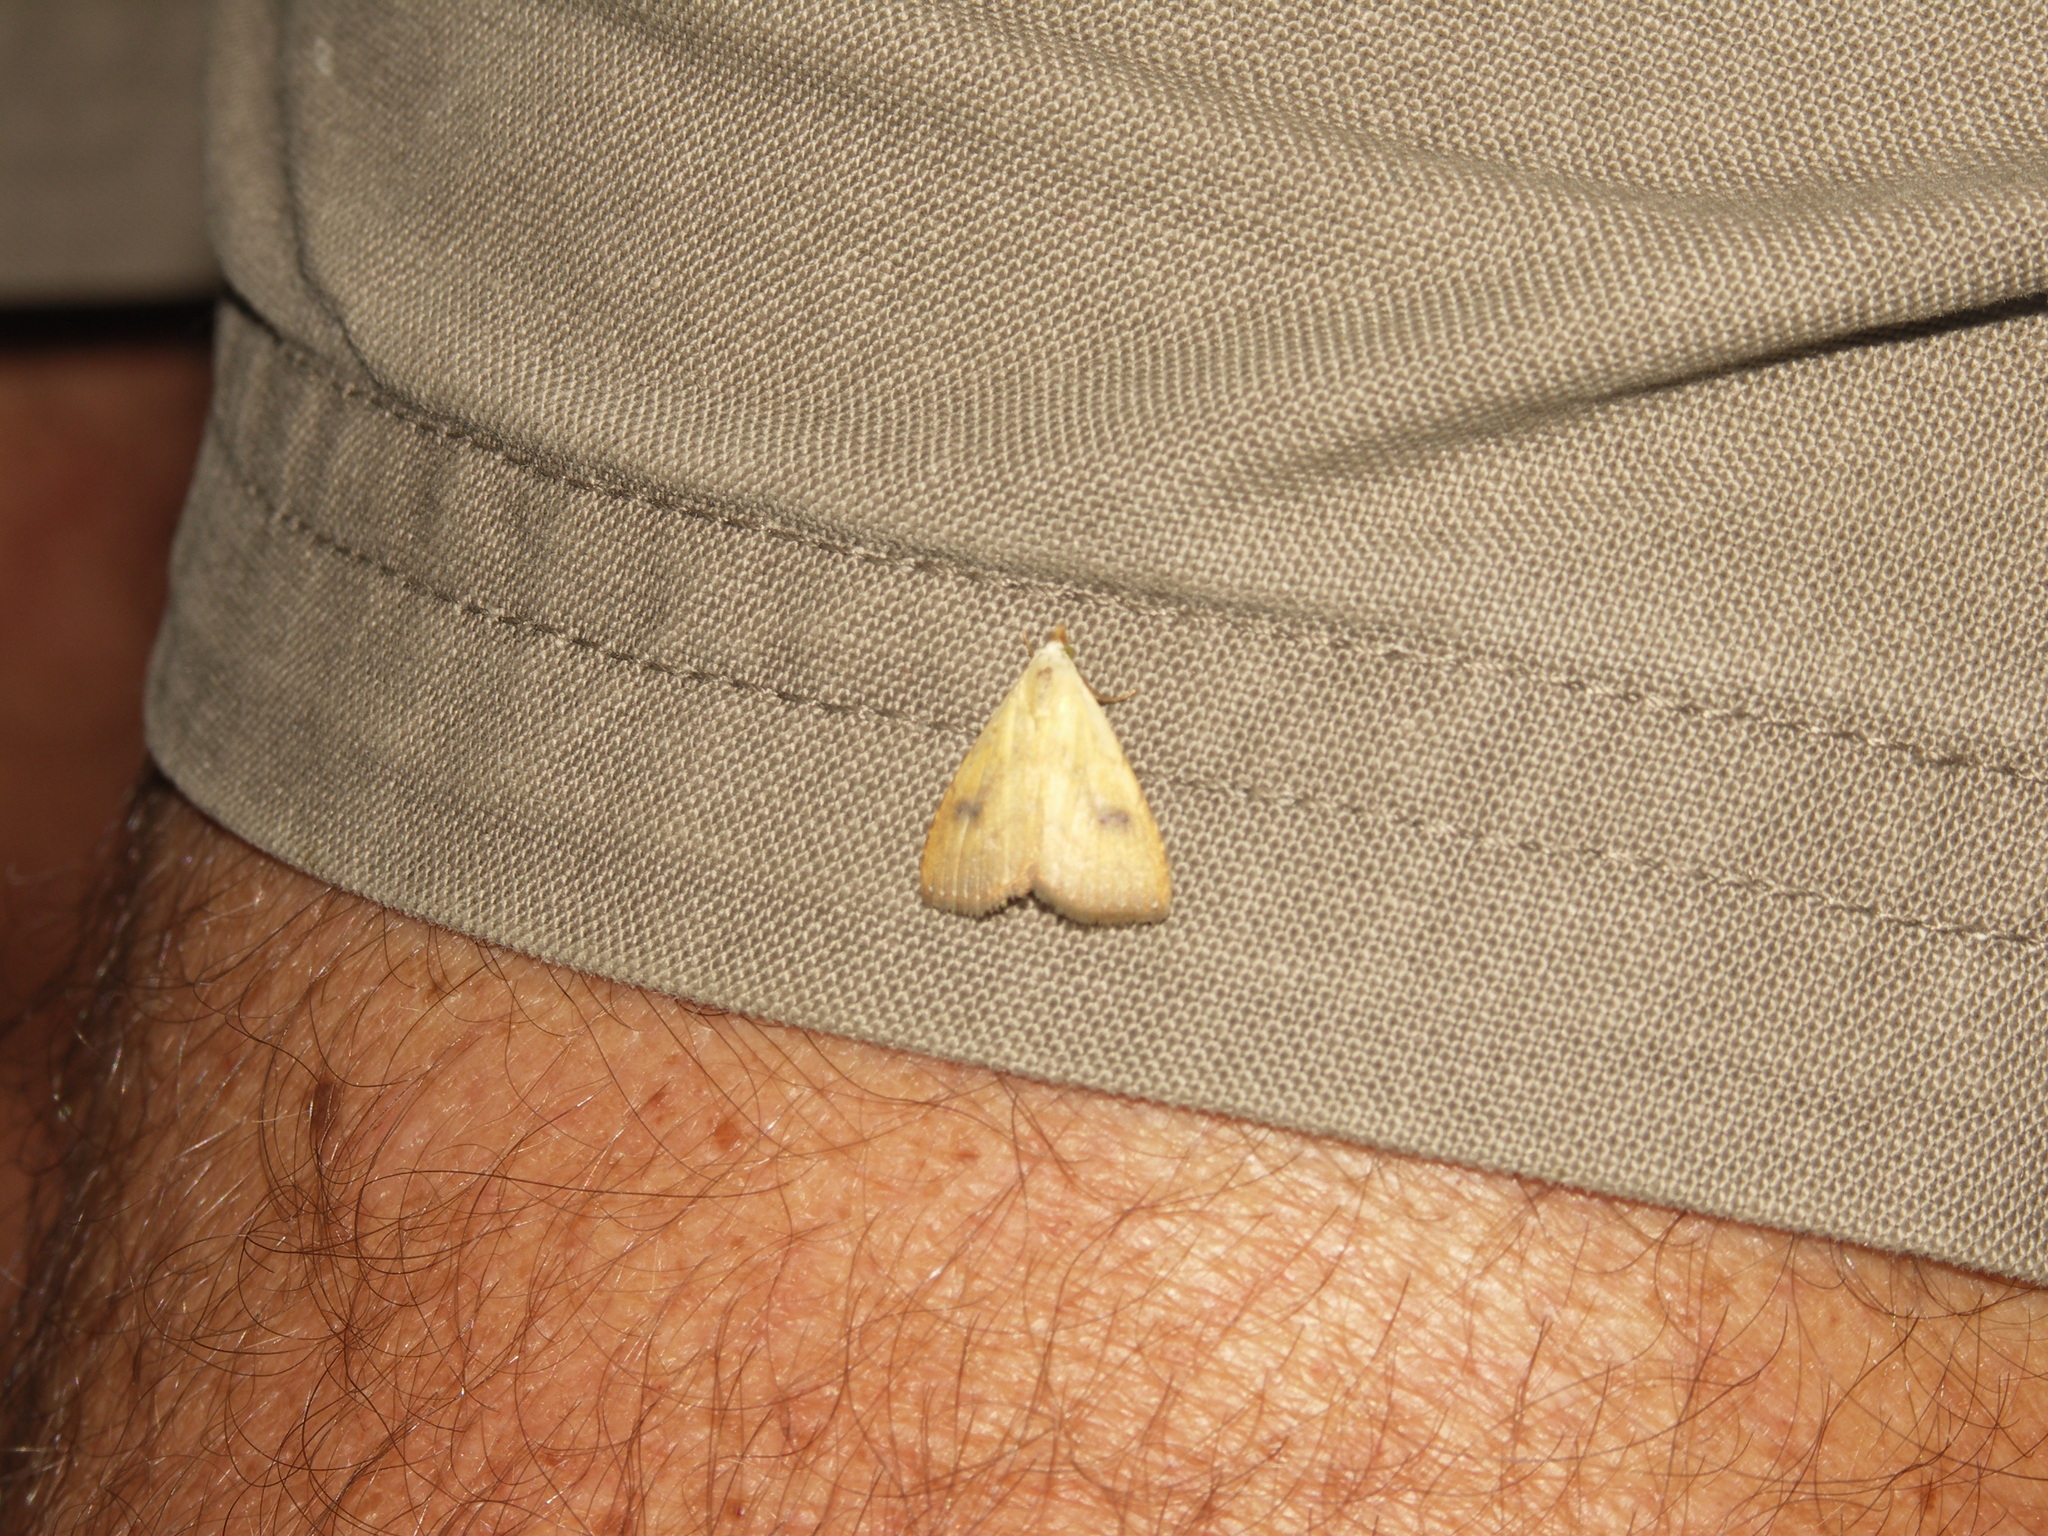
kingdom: Animalia
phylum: Arthropoda
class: Insecta
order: Lepidoptera
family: Erebidae
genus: Rivula
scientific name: Rivula sericealis
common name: Straw dot
